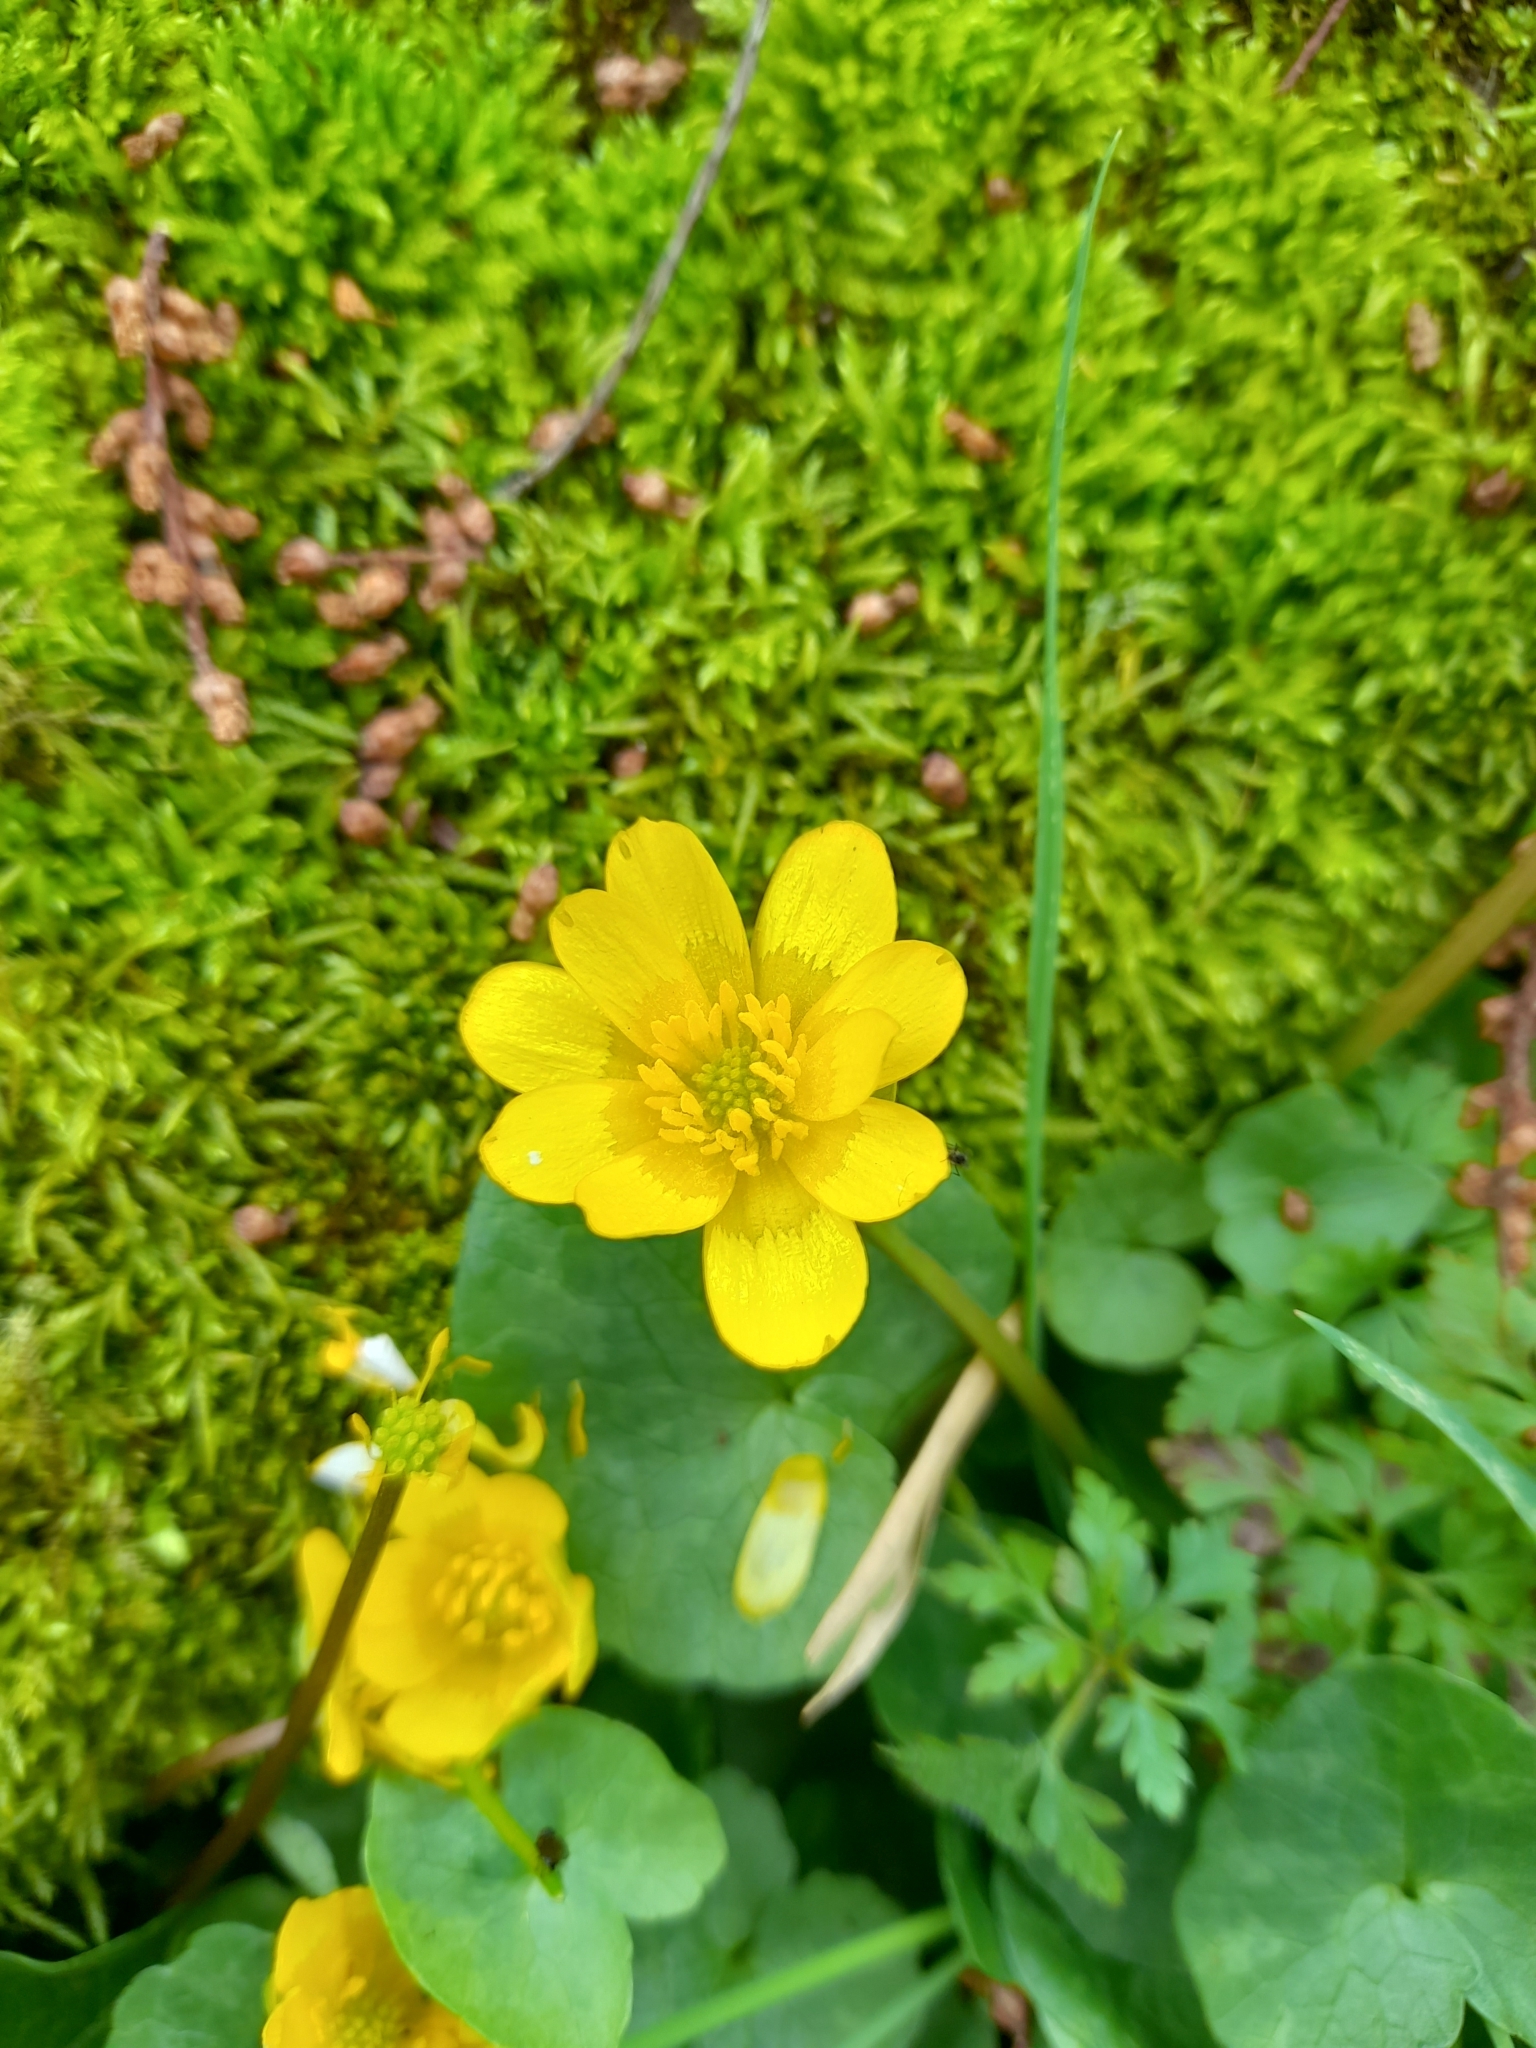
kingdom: Plantae
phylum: Tracheophyta
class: Magnoliopsida
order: Ranunculales
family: Ranunculaceae
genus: Ficaria
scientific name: Ficaria verna
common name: Lesser celandine
